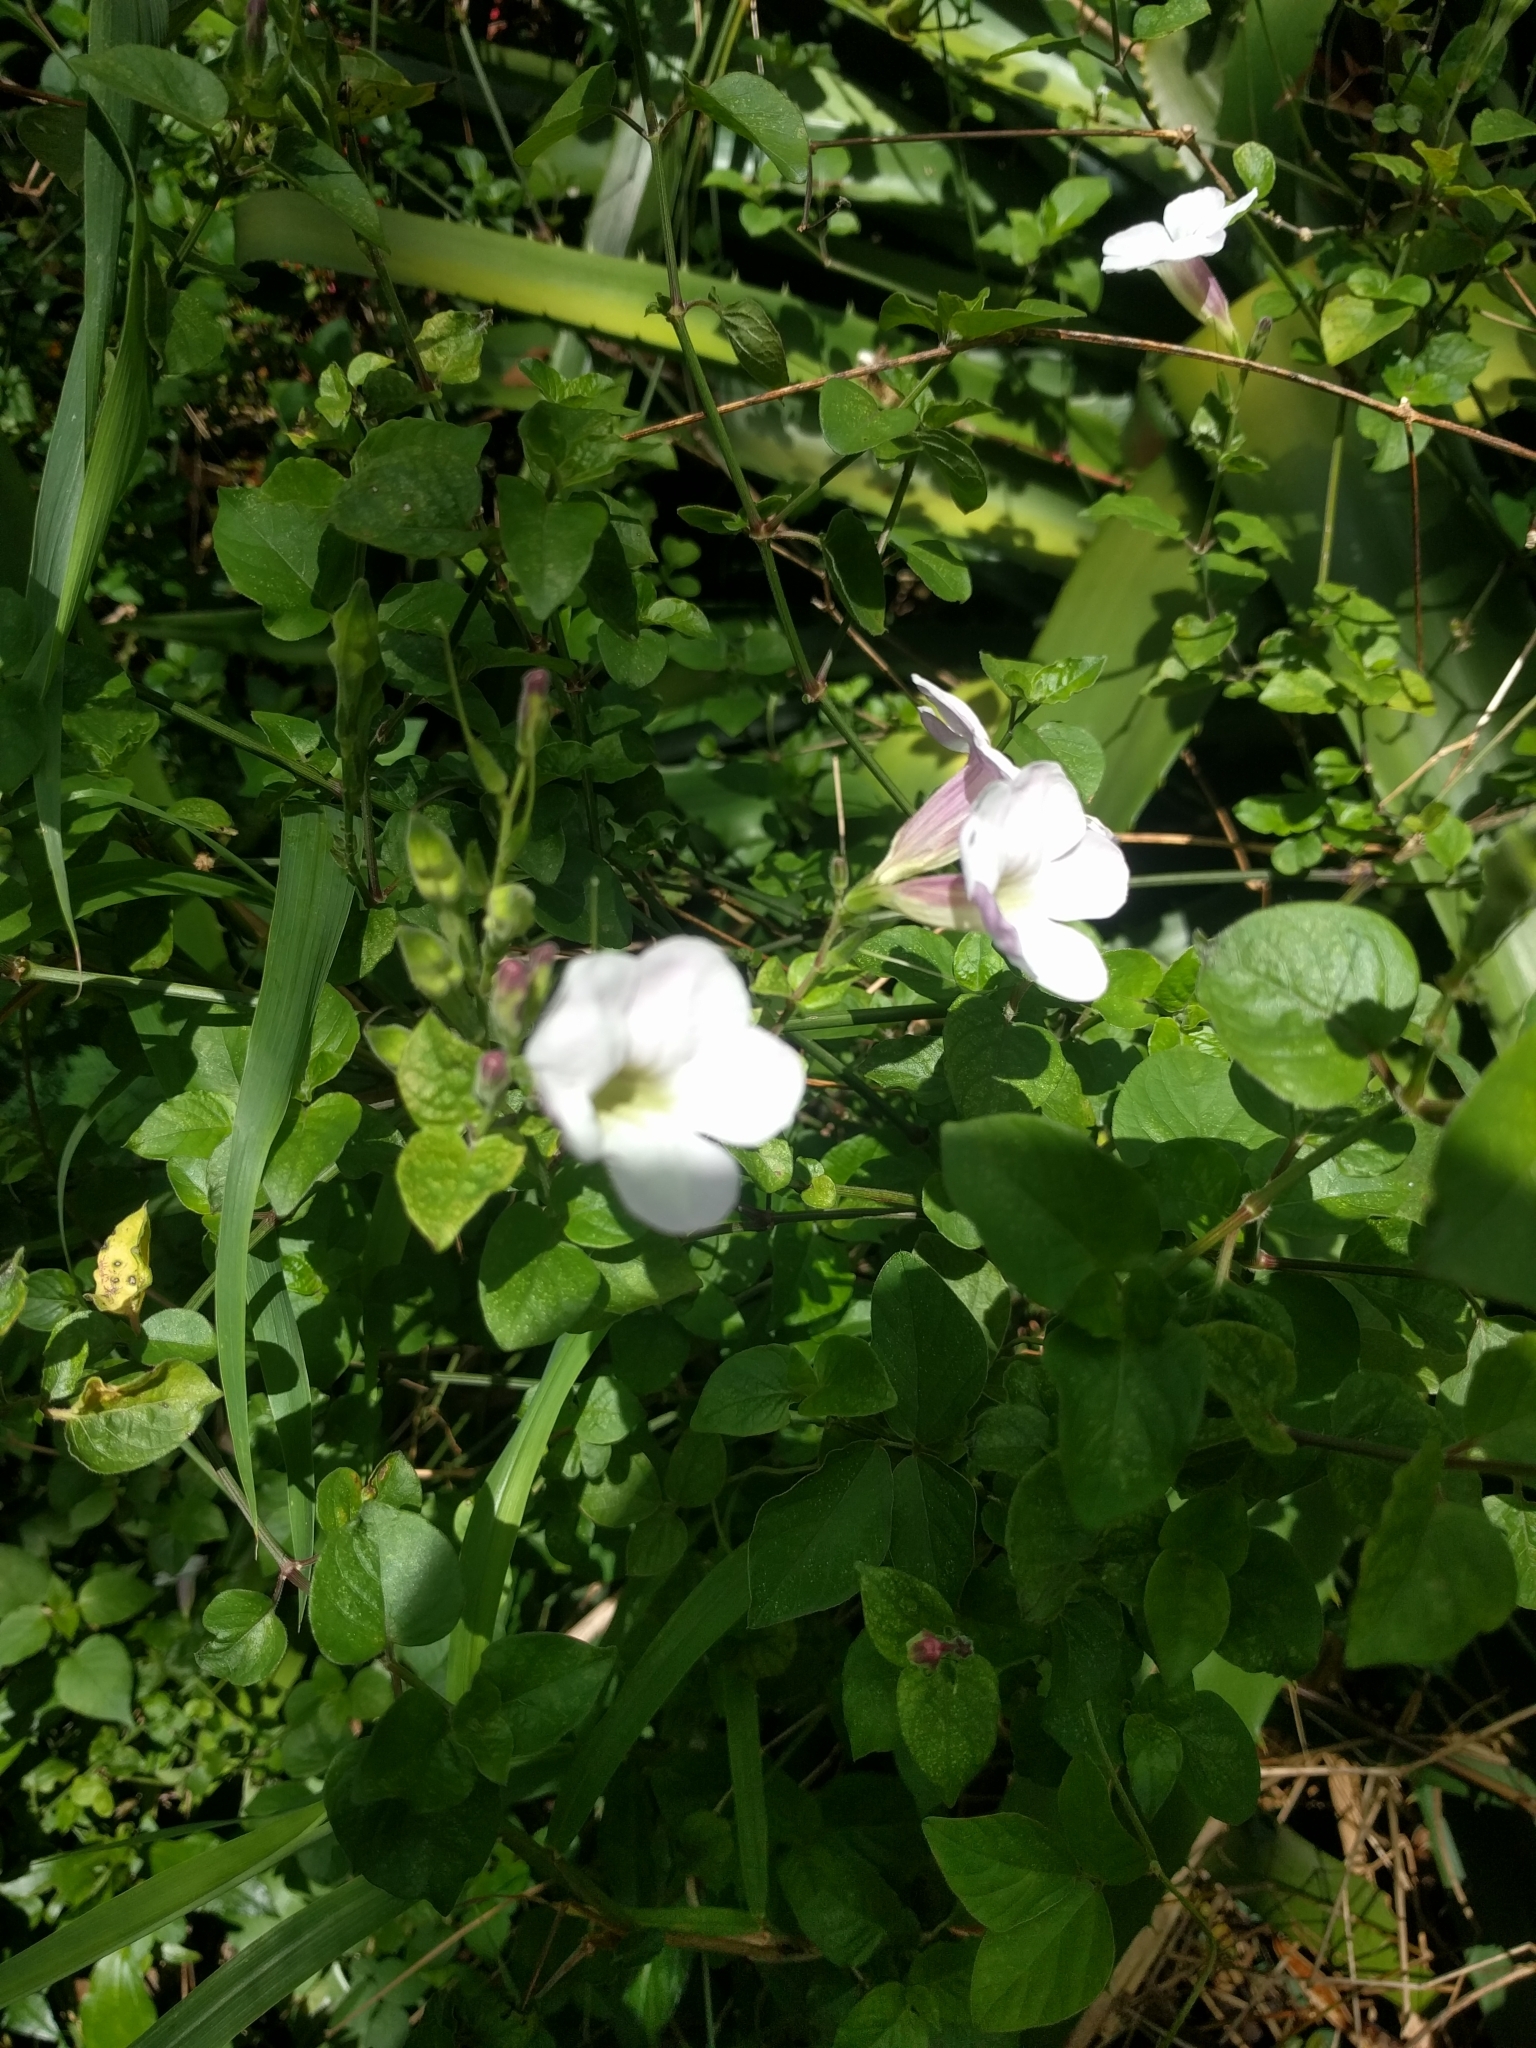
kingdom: Plantae
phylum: Tracheophyta
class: Magnoliopsida
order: Lamiales
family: Acanthaceae
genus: Asystasia
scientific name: Asystasia gangetica
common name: Chinese violet
